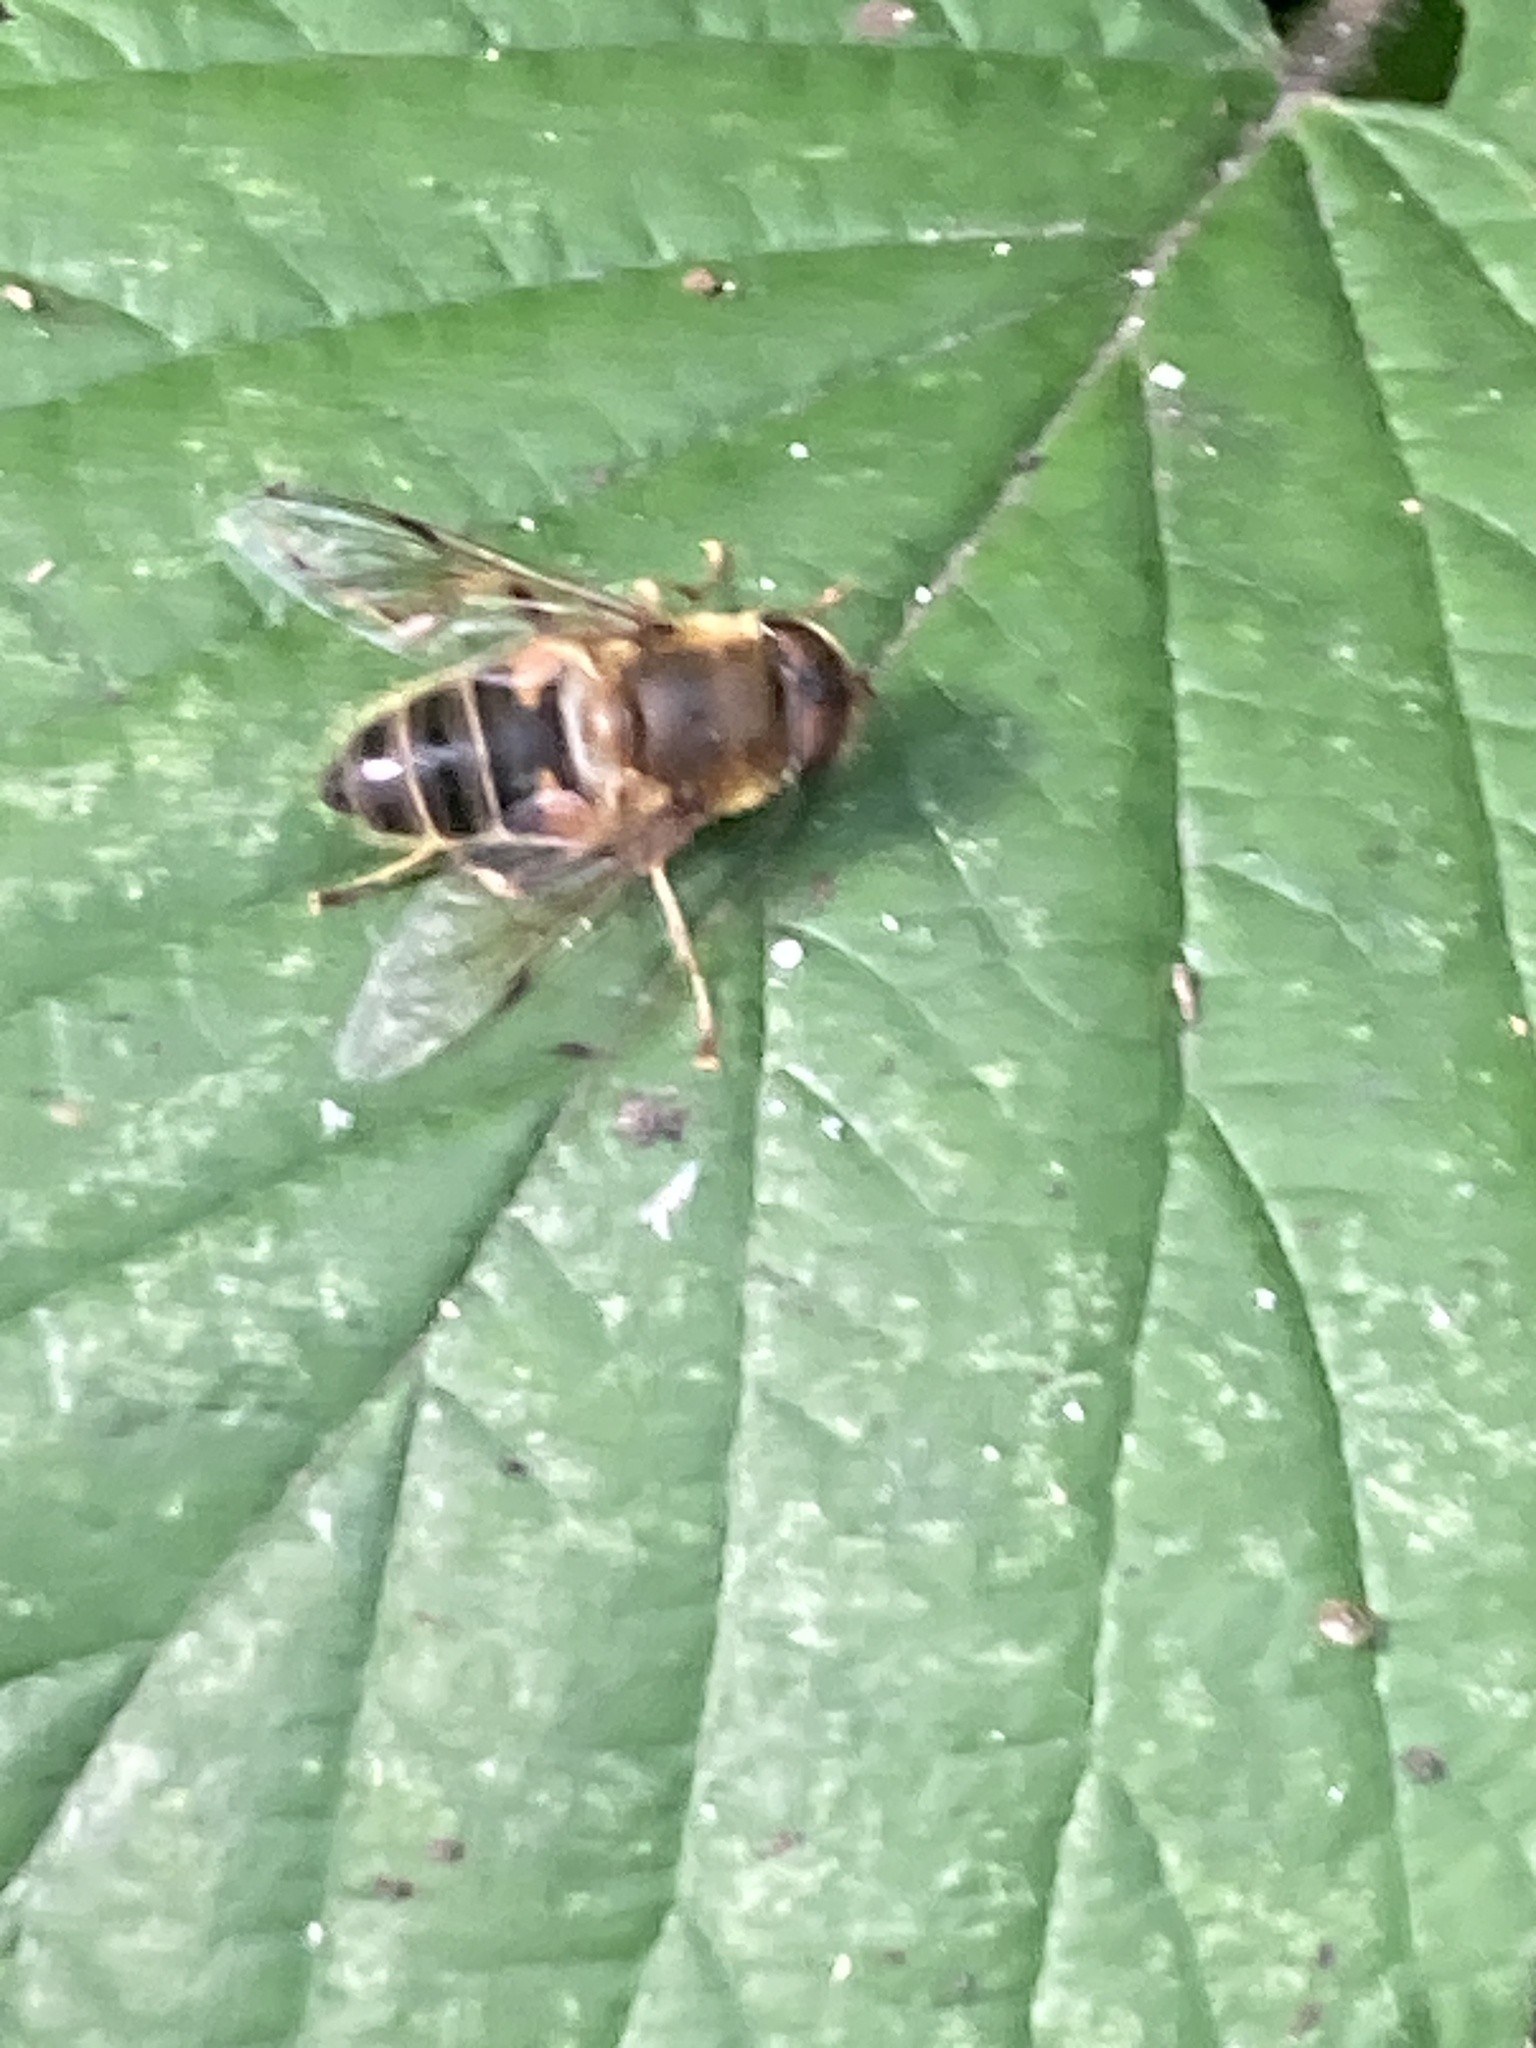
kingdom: Animalia
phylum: Arthropoda
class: Insecta
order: Diptera
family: Syrphidae
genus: Eristalis
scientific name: Eristalis pertinax
